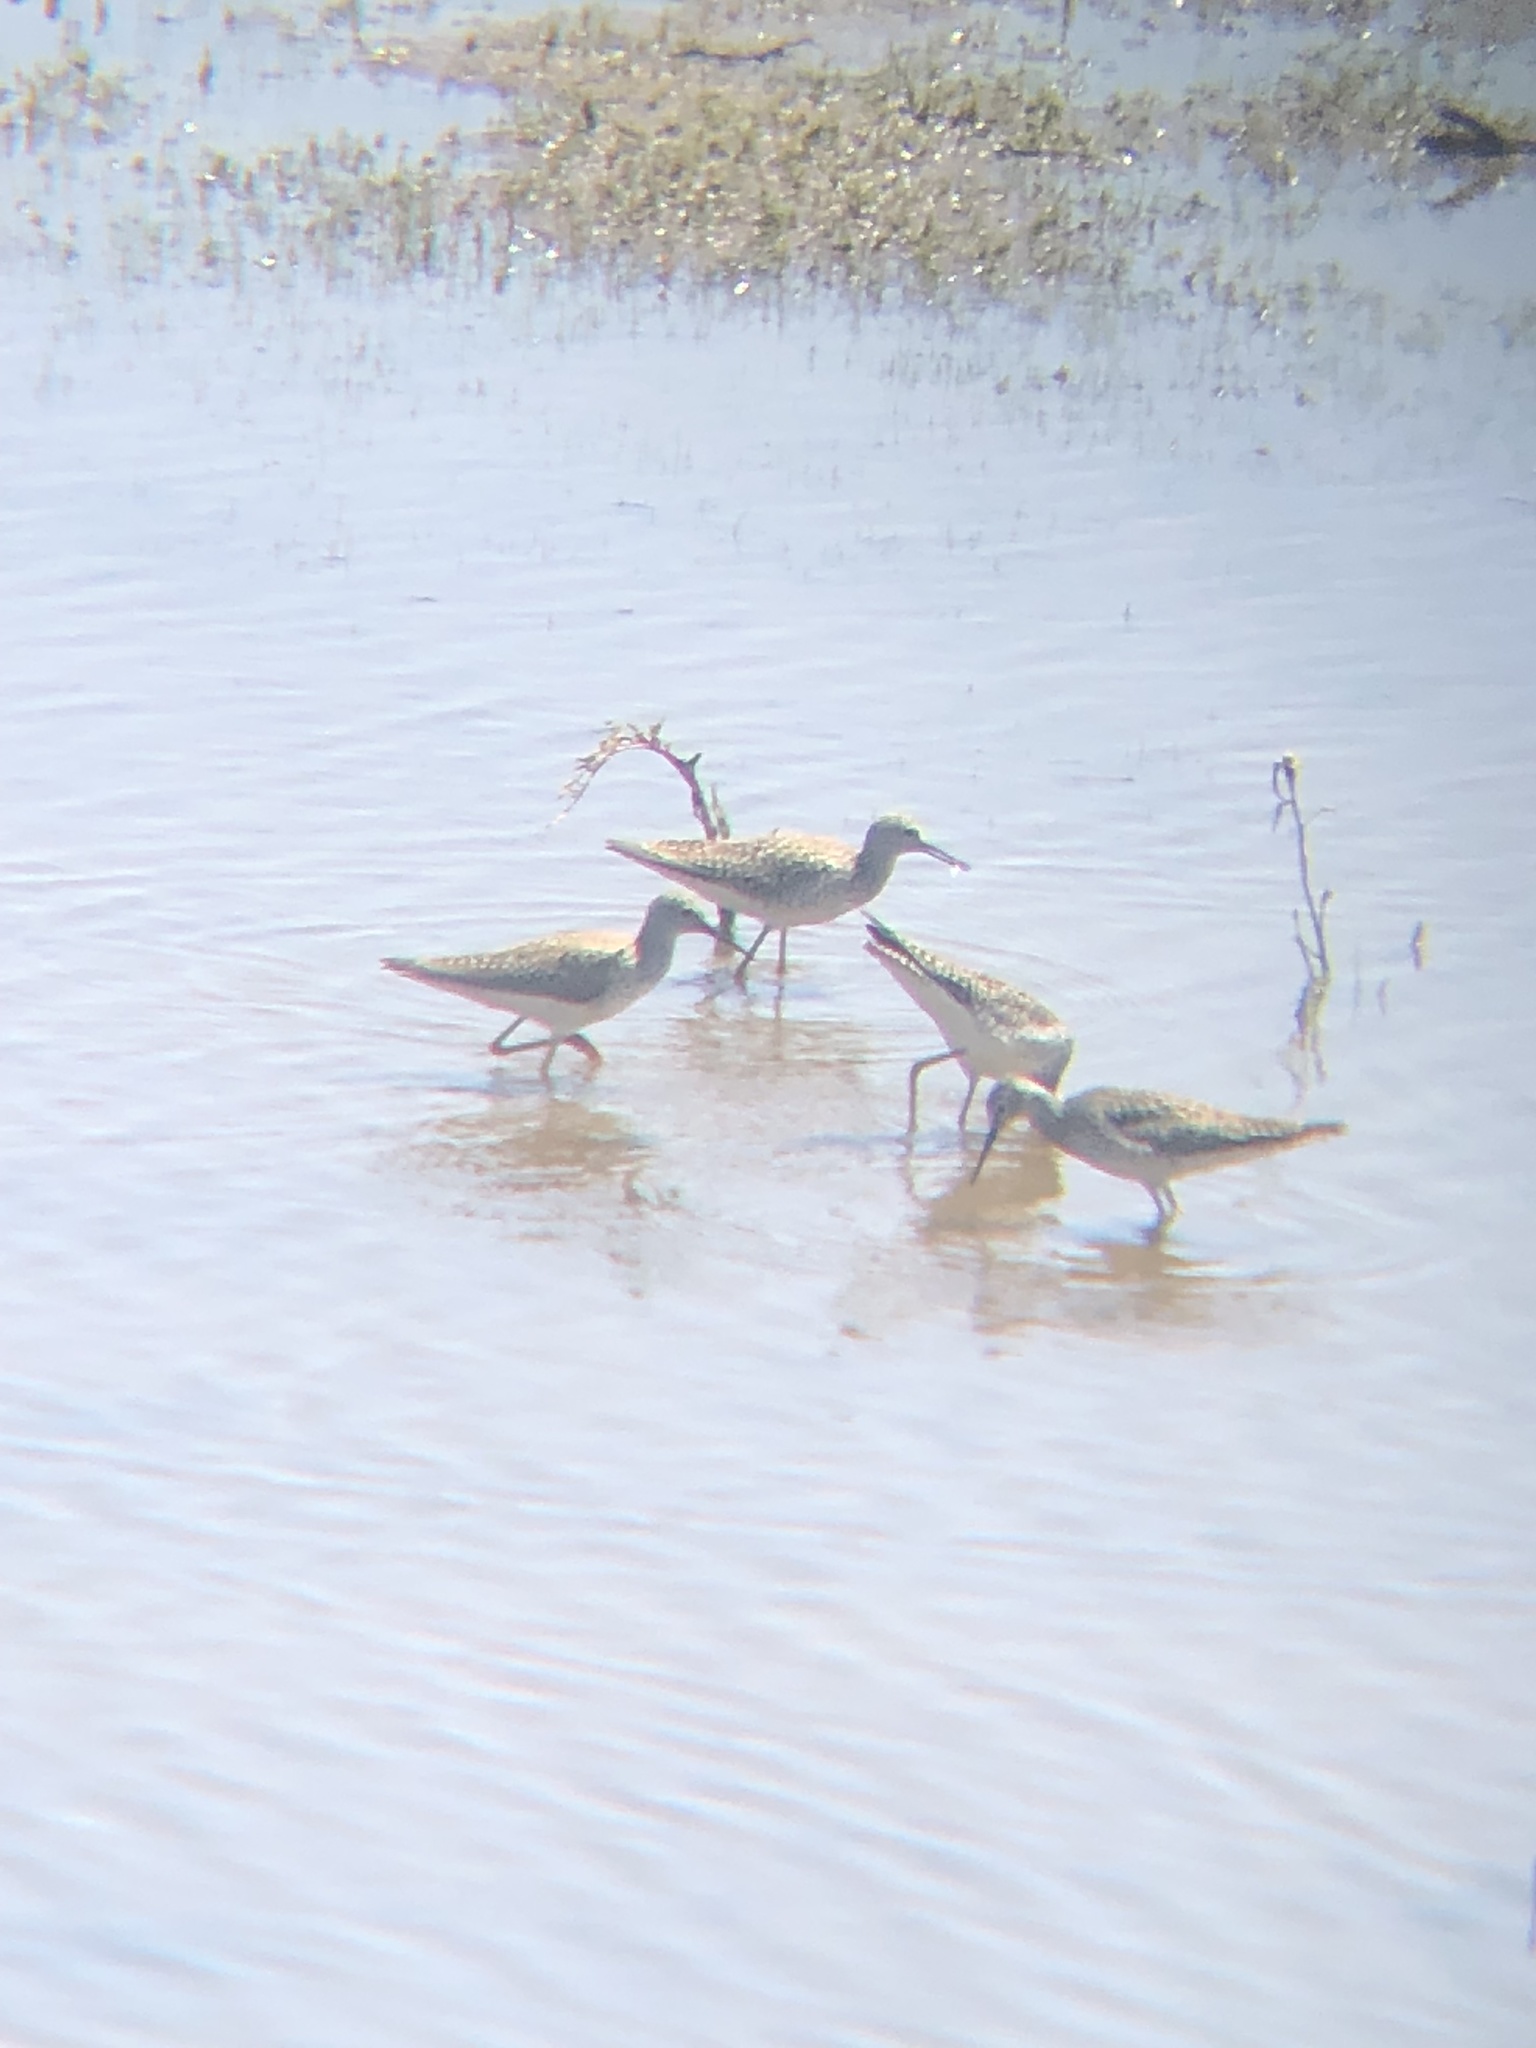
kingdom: Animalia
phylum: Chordata
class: Aves
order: Charadriiformes
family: Scolopacidae
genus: Tringa
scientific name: Tringa flavipes
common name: Lesser yellowlegs
